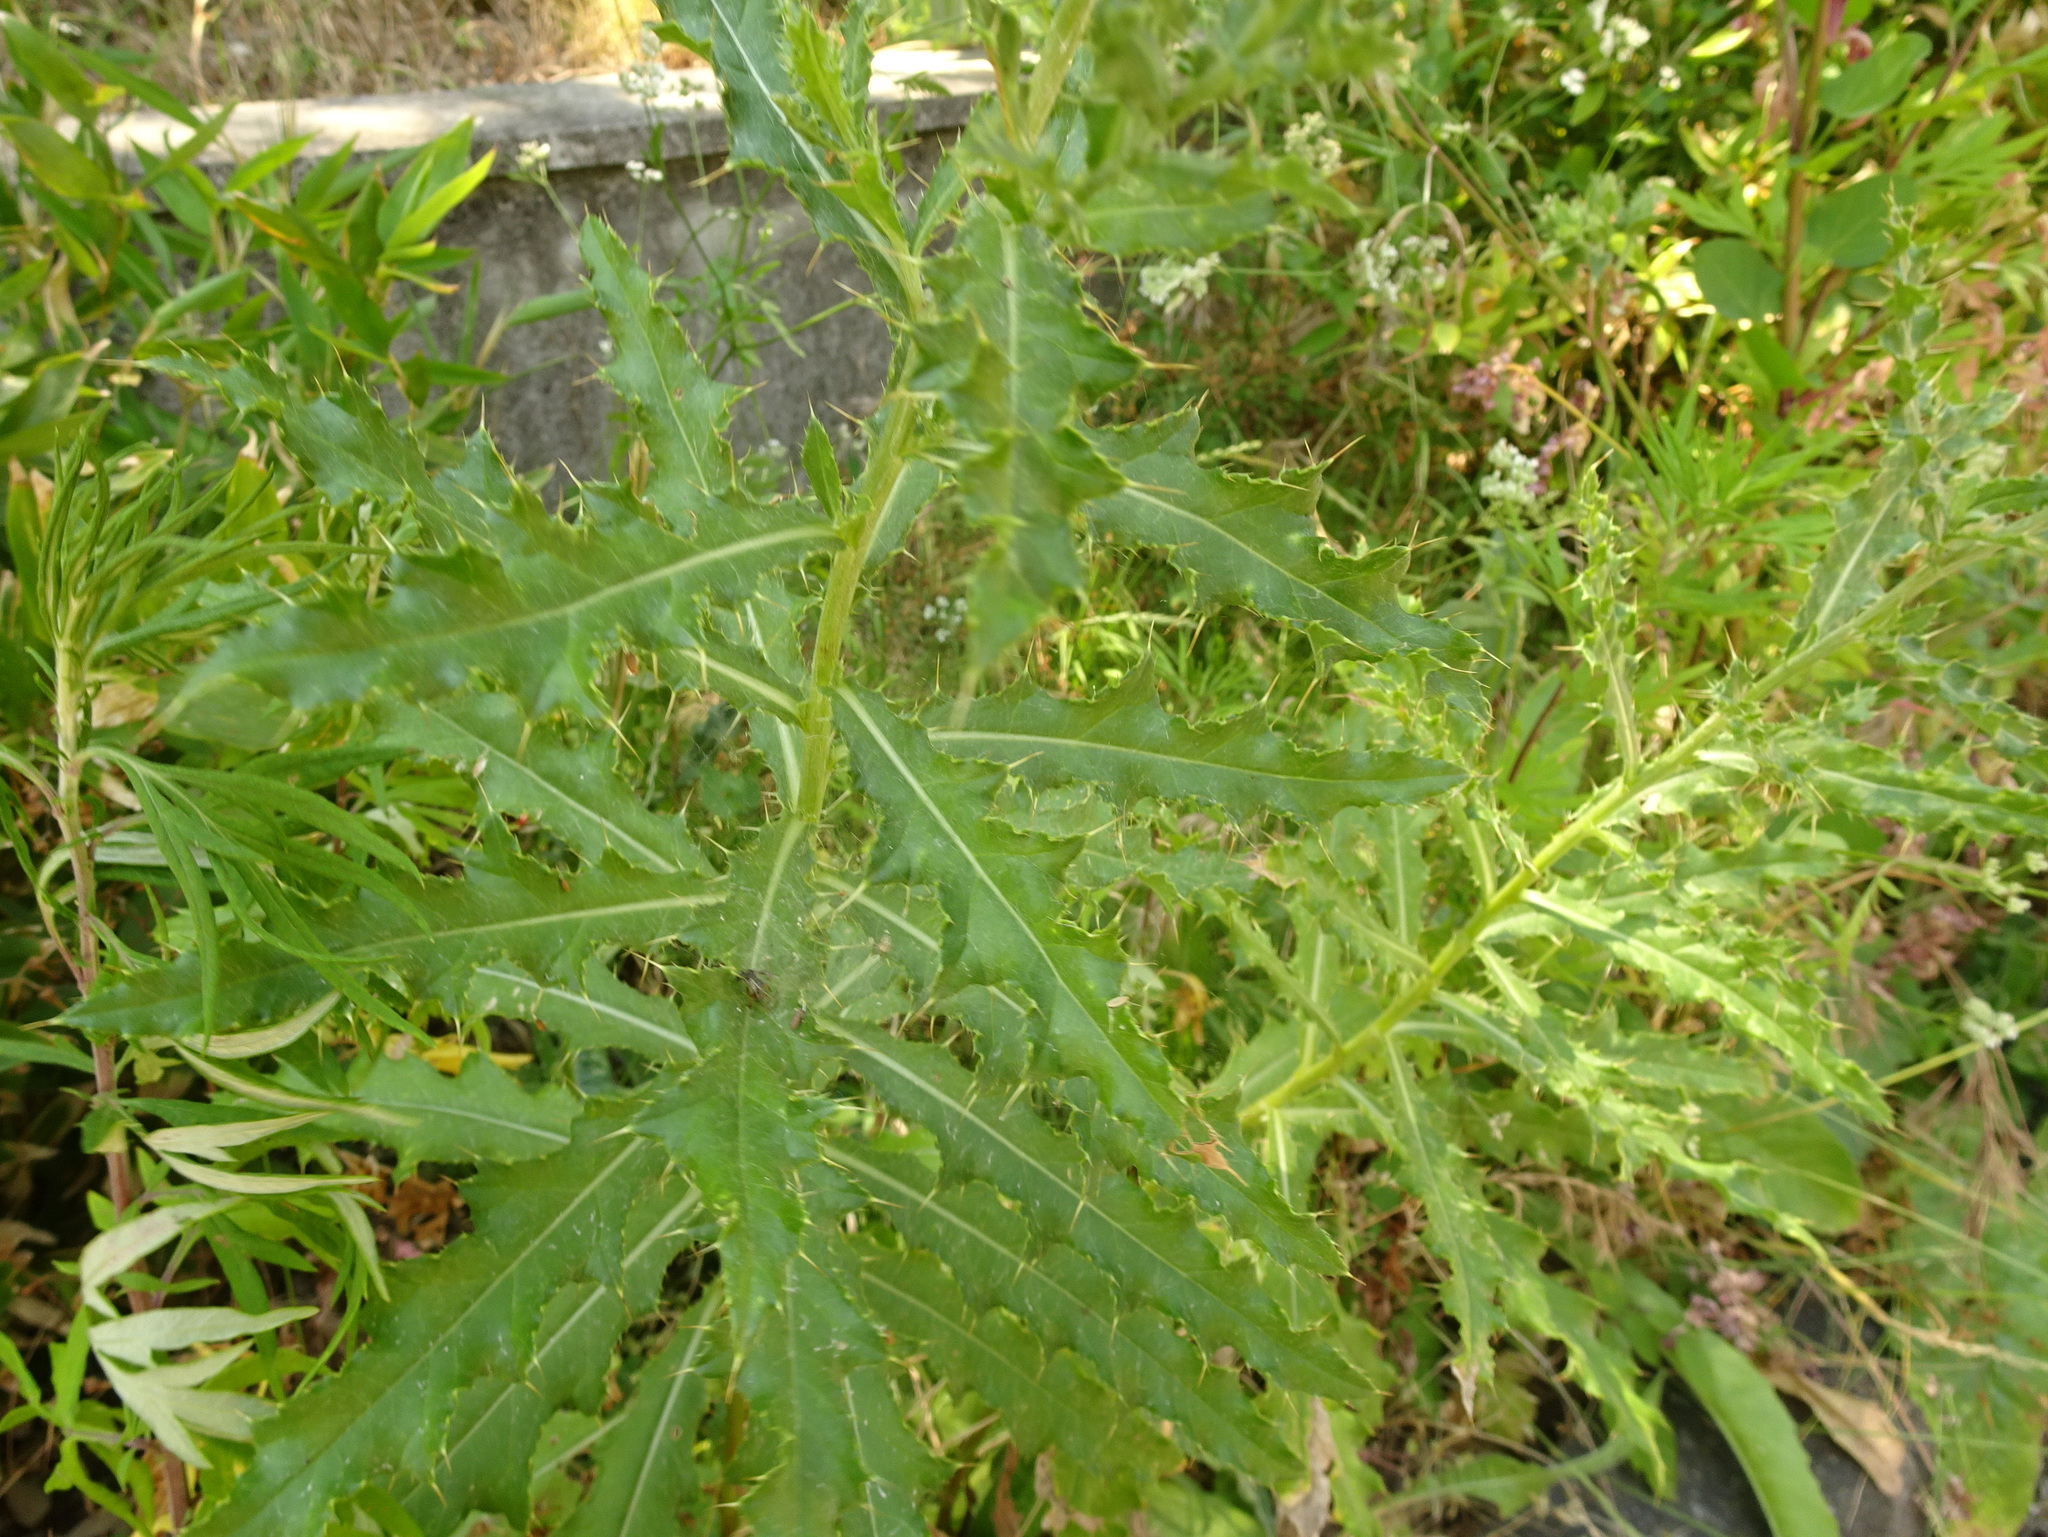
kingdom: Plantae
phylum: Tracheophyta
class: Magnoliopsida
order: Asterales
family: Asteraceae
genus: Cirsium
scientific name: Cirsium arvense
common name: Creeping thistle
